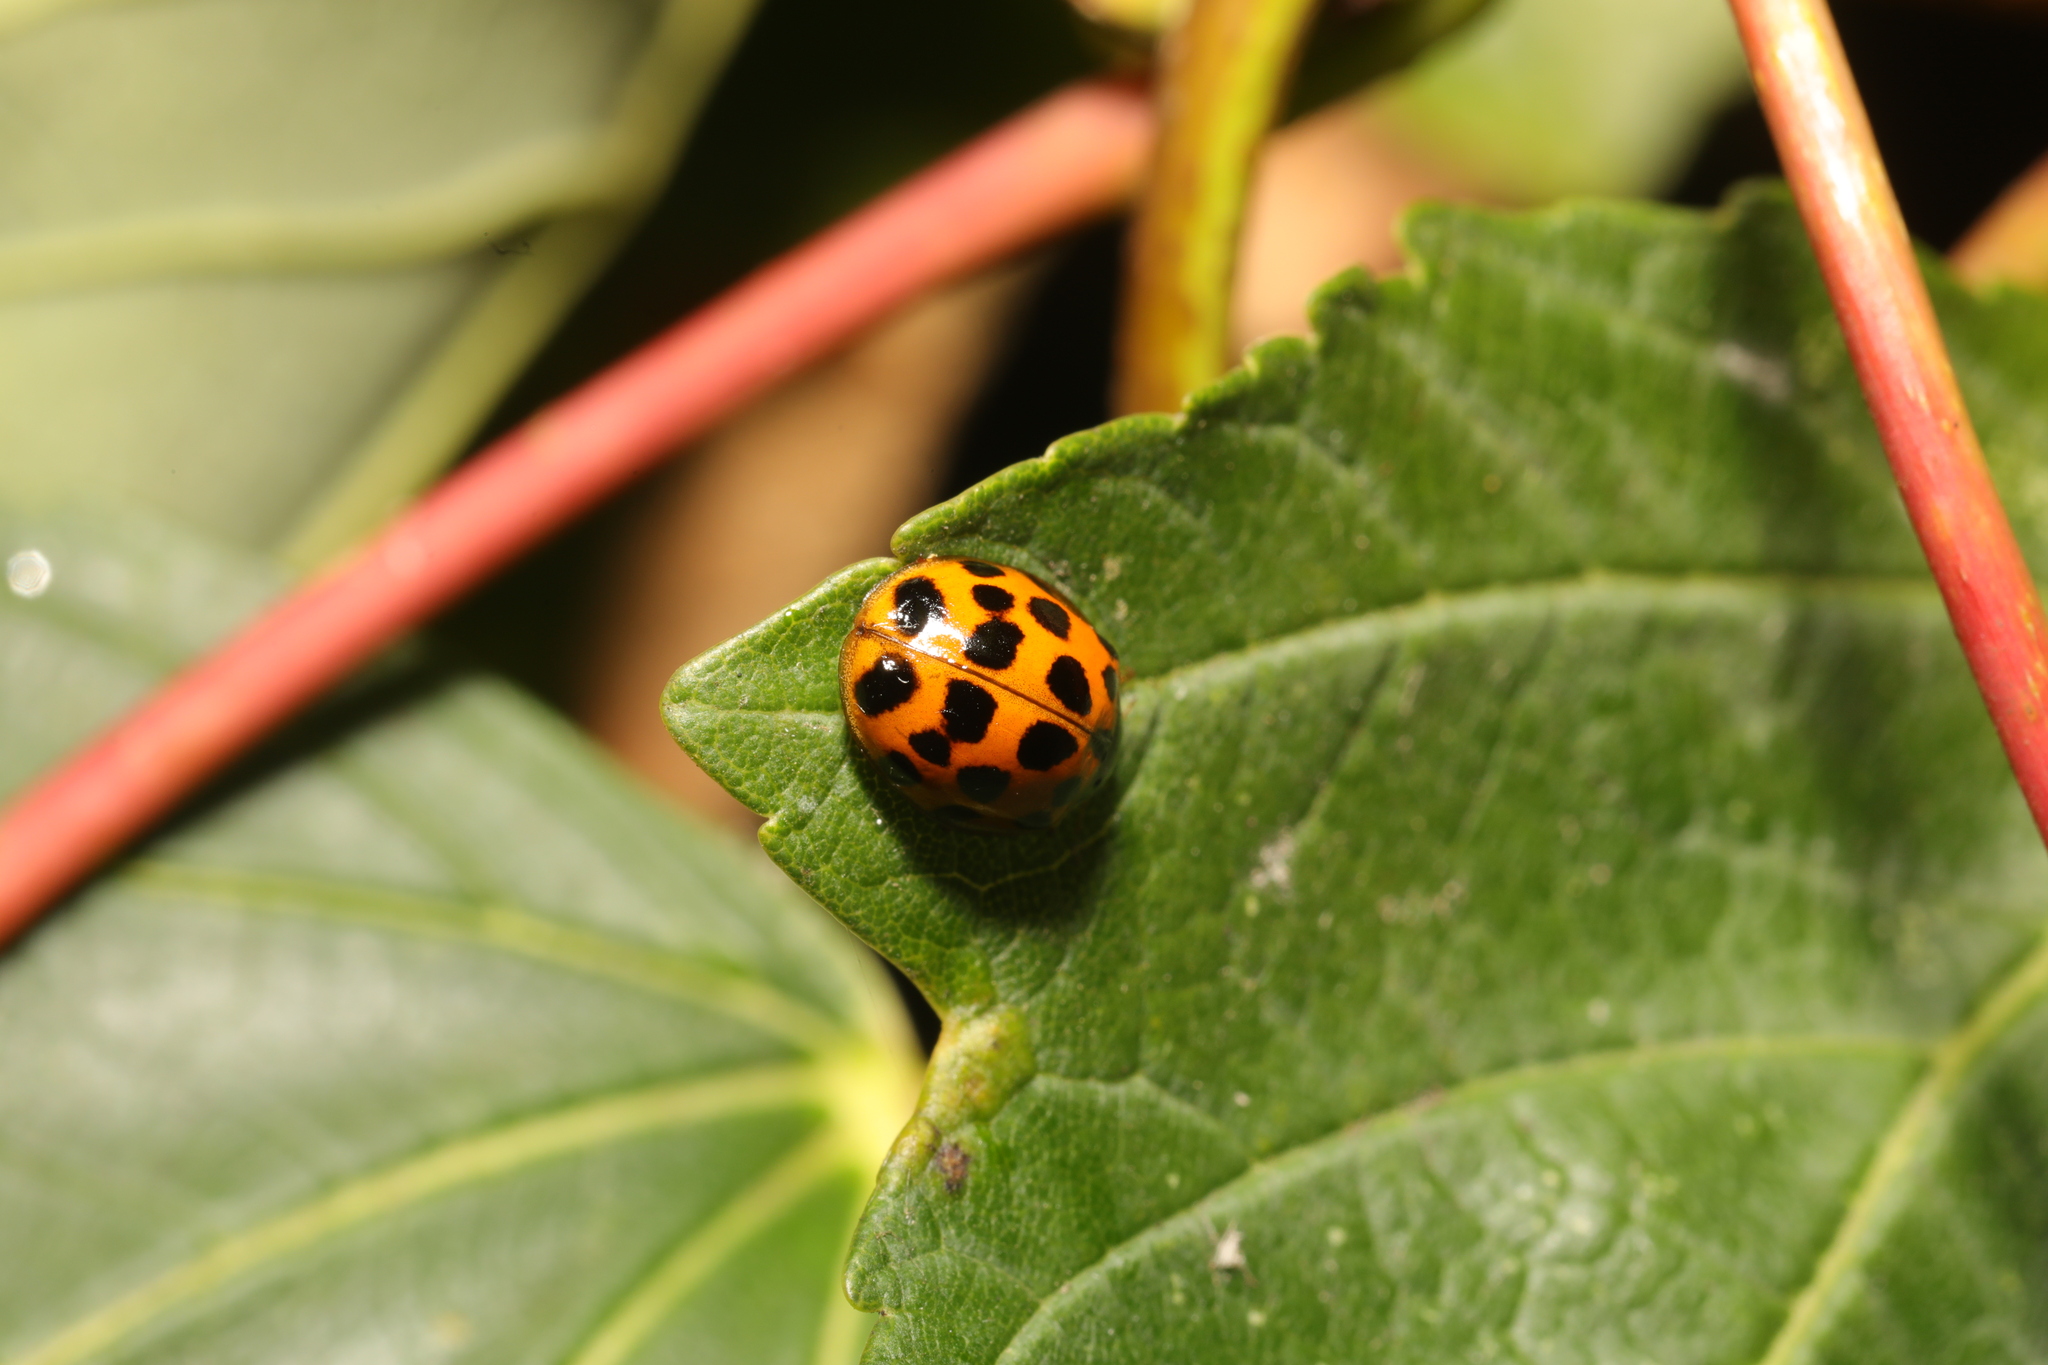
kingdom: Animalia
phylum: Arthropoda
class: Insecta
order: Coleoptera
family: Coccinellidae
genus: Harmonia
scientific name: Harmonia axyridis
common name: Harlequin ladybird
